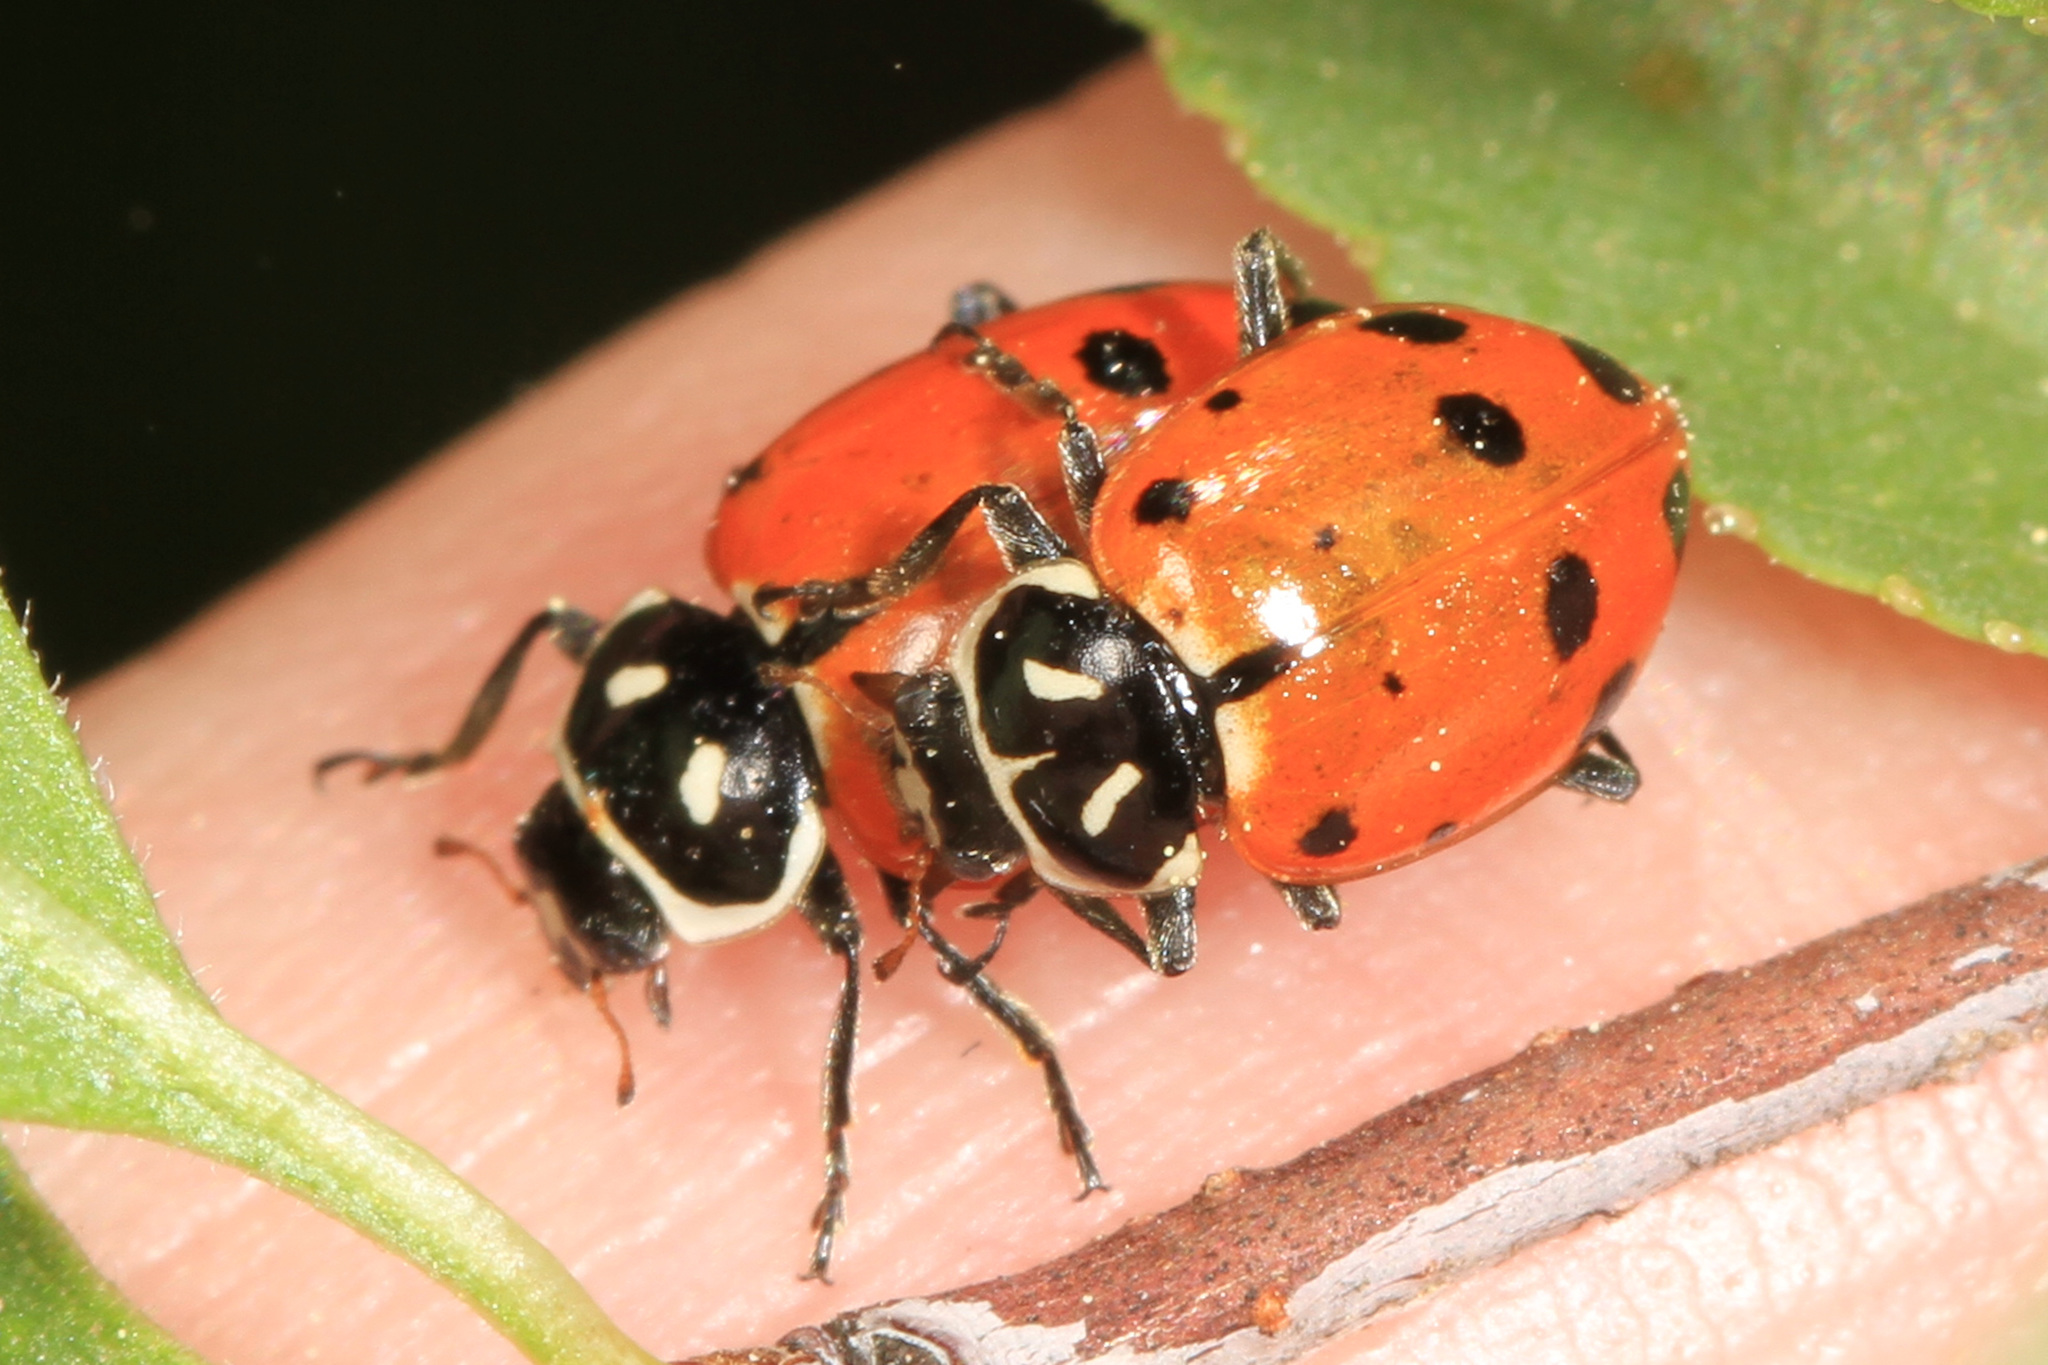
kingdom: Animalia
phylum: Arthropoda
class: Insecta
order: Coleoptera
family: Coccinellidae
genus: Hippodamia
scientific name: Hippodamia convergens
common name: Convergent lady beetle
